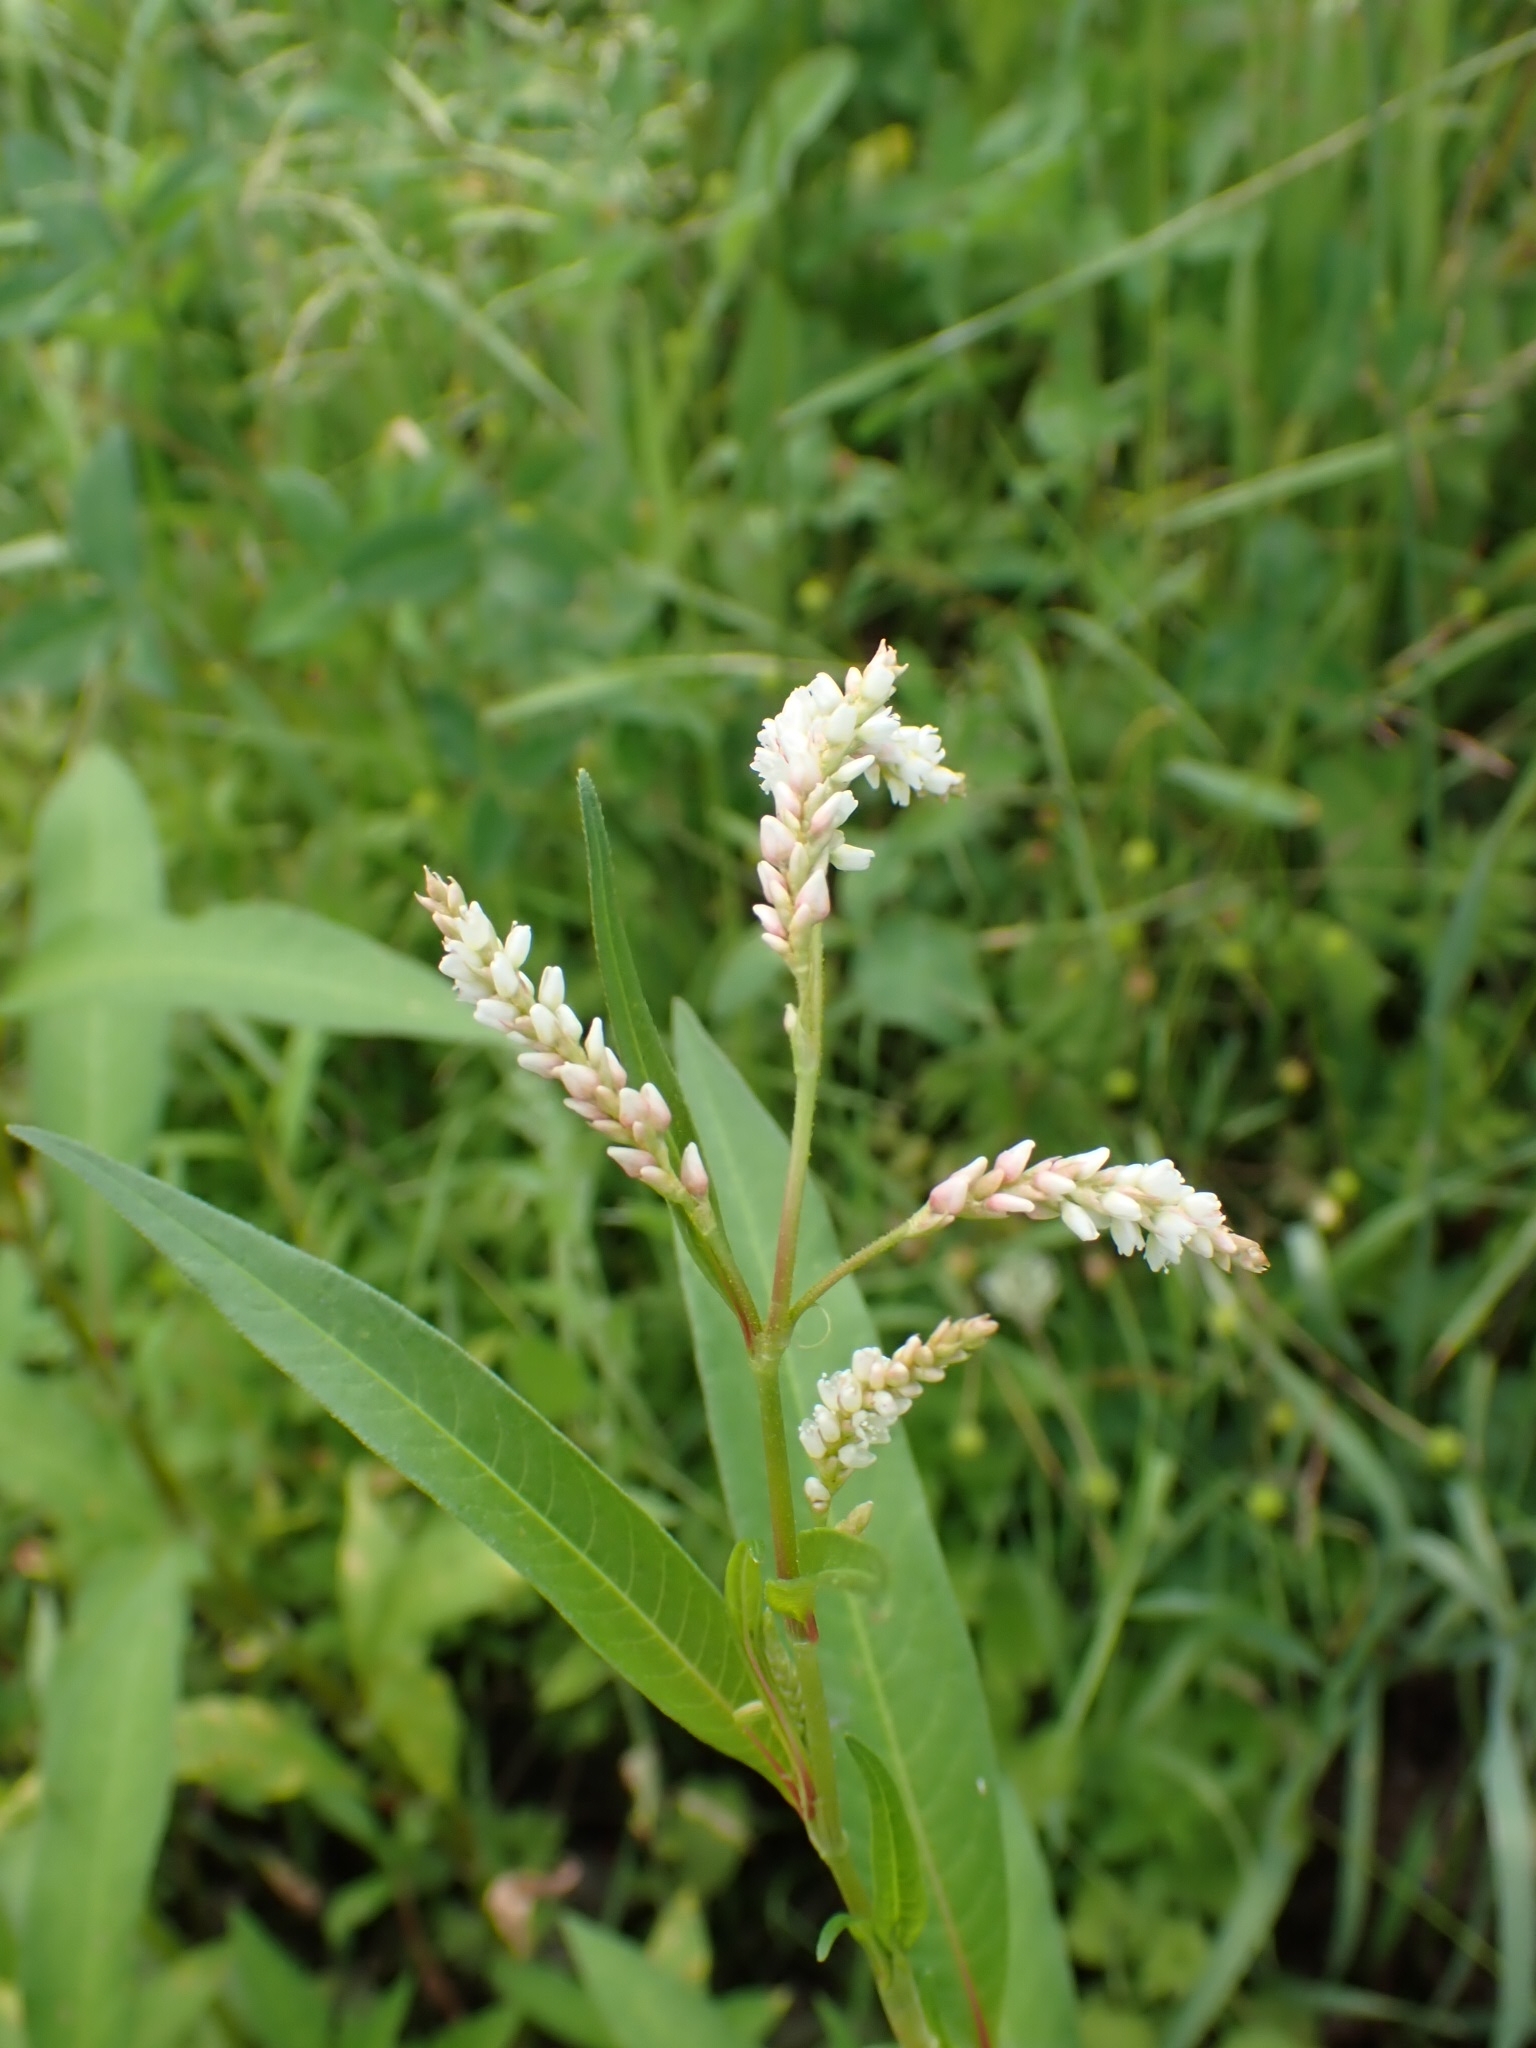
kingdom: Plantae
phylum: Tracheophyta
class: Magnoliopsida
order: Caryophyllales
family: Polygonaceae
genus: Persicaria
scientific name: Persicaria lapathifolia
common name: Curlytop knotweed
